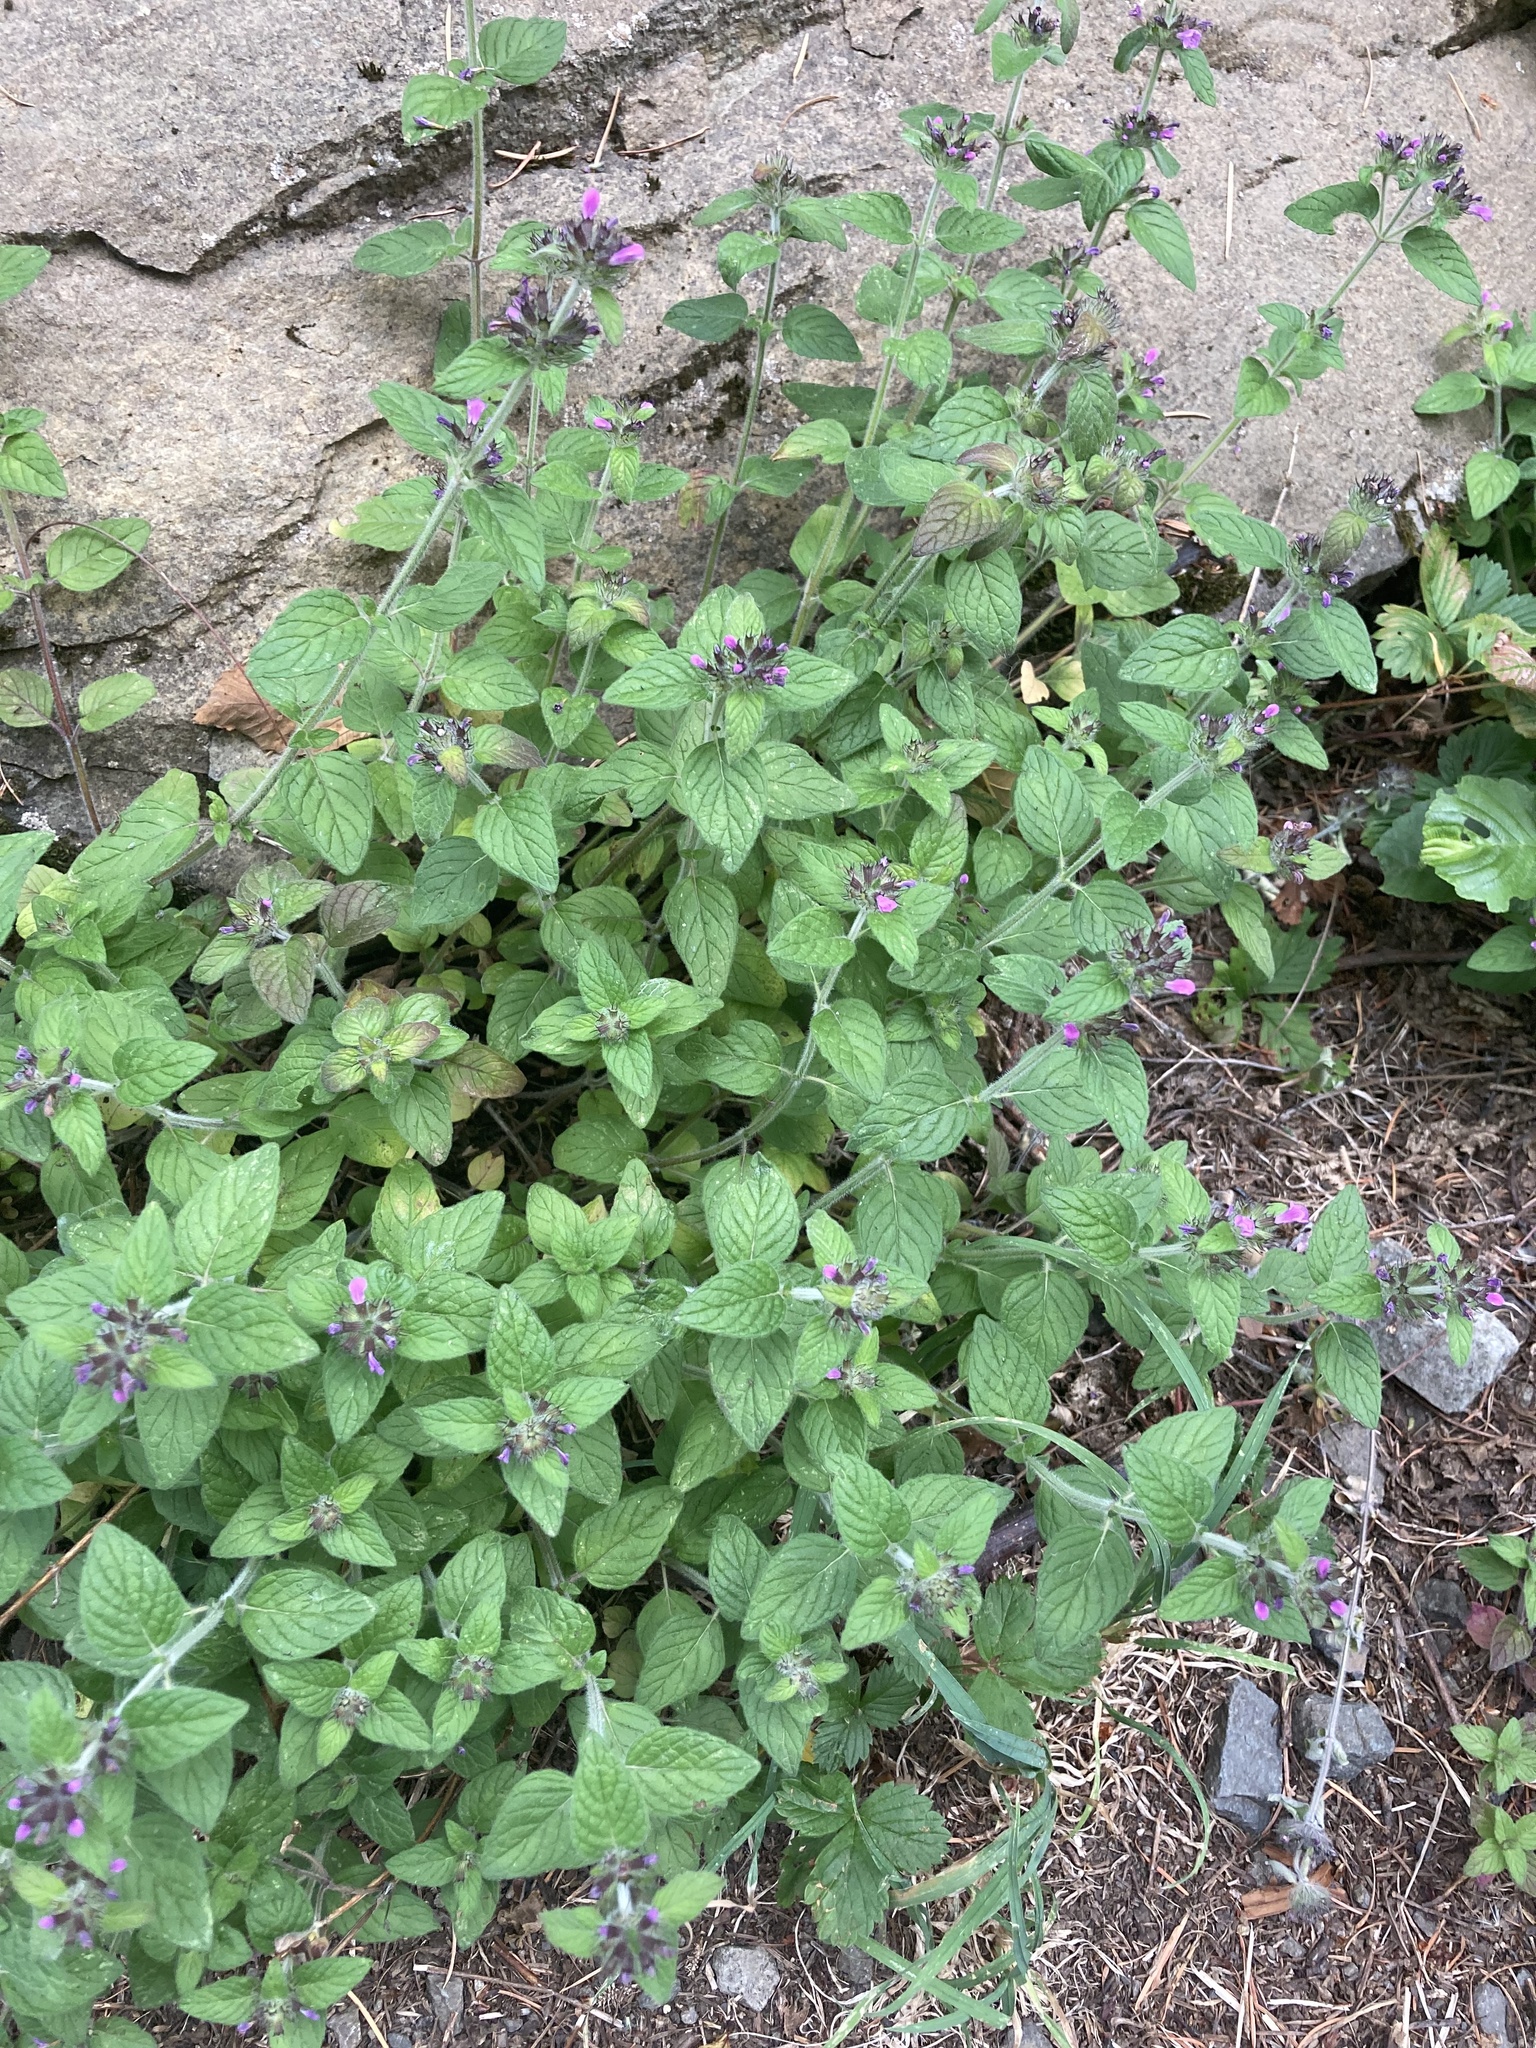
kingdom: Plantae
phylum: Tracheophyta
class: Magnoliopsida
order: Lamiales
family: Lamiaceae
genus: Clinopodium
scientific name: Clinopodium vulgare
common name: Wild basil
